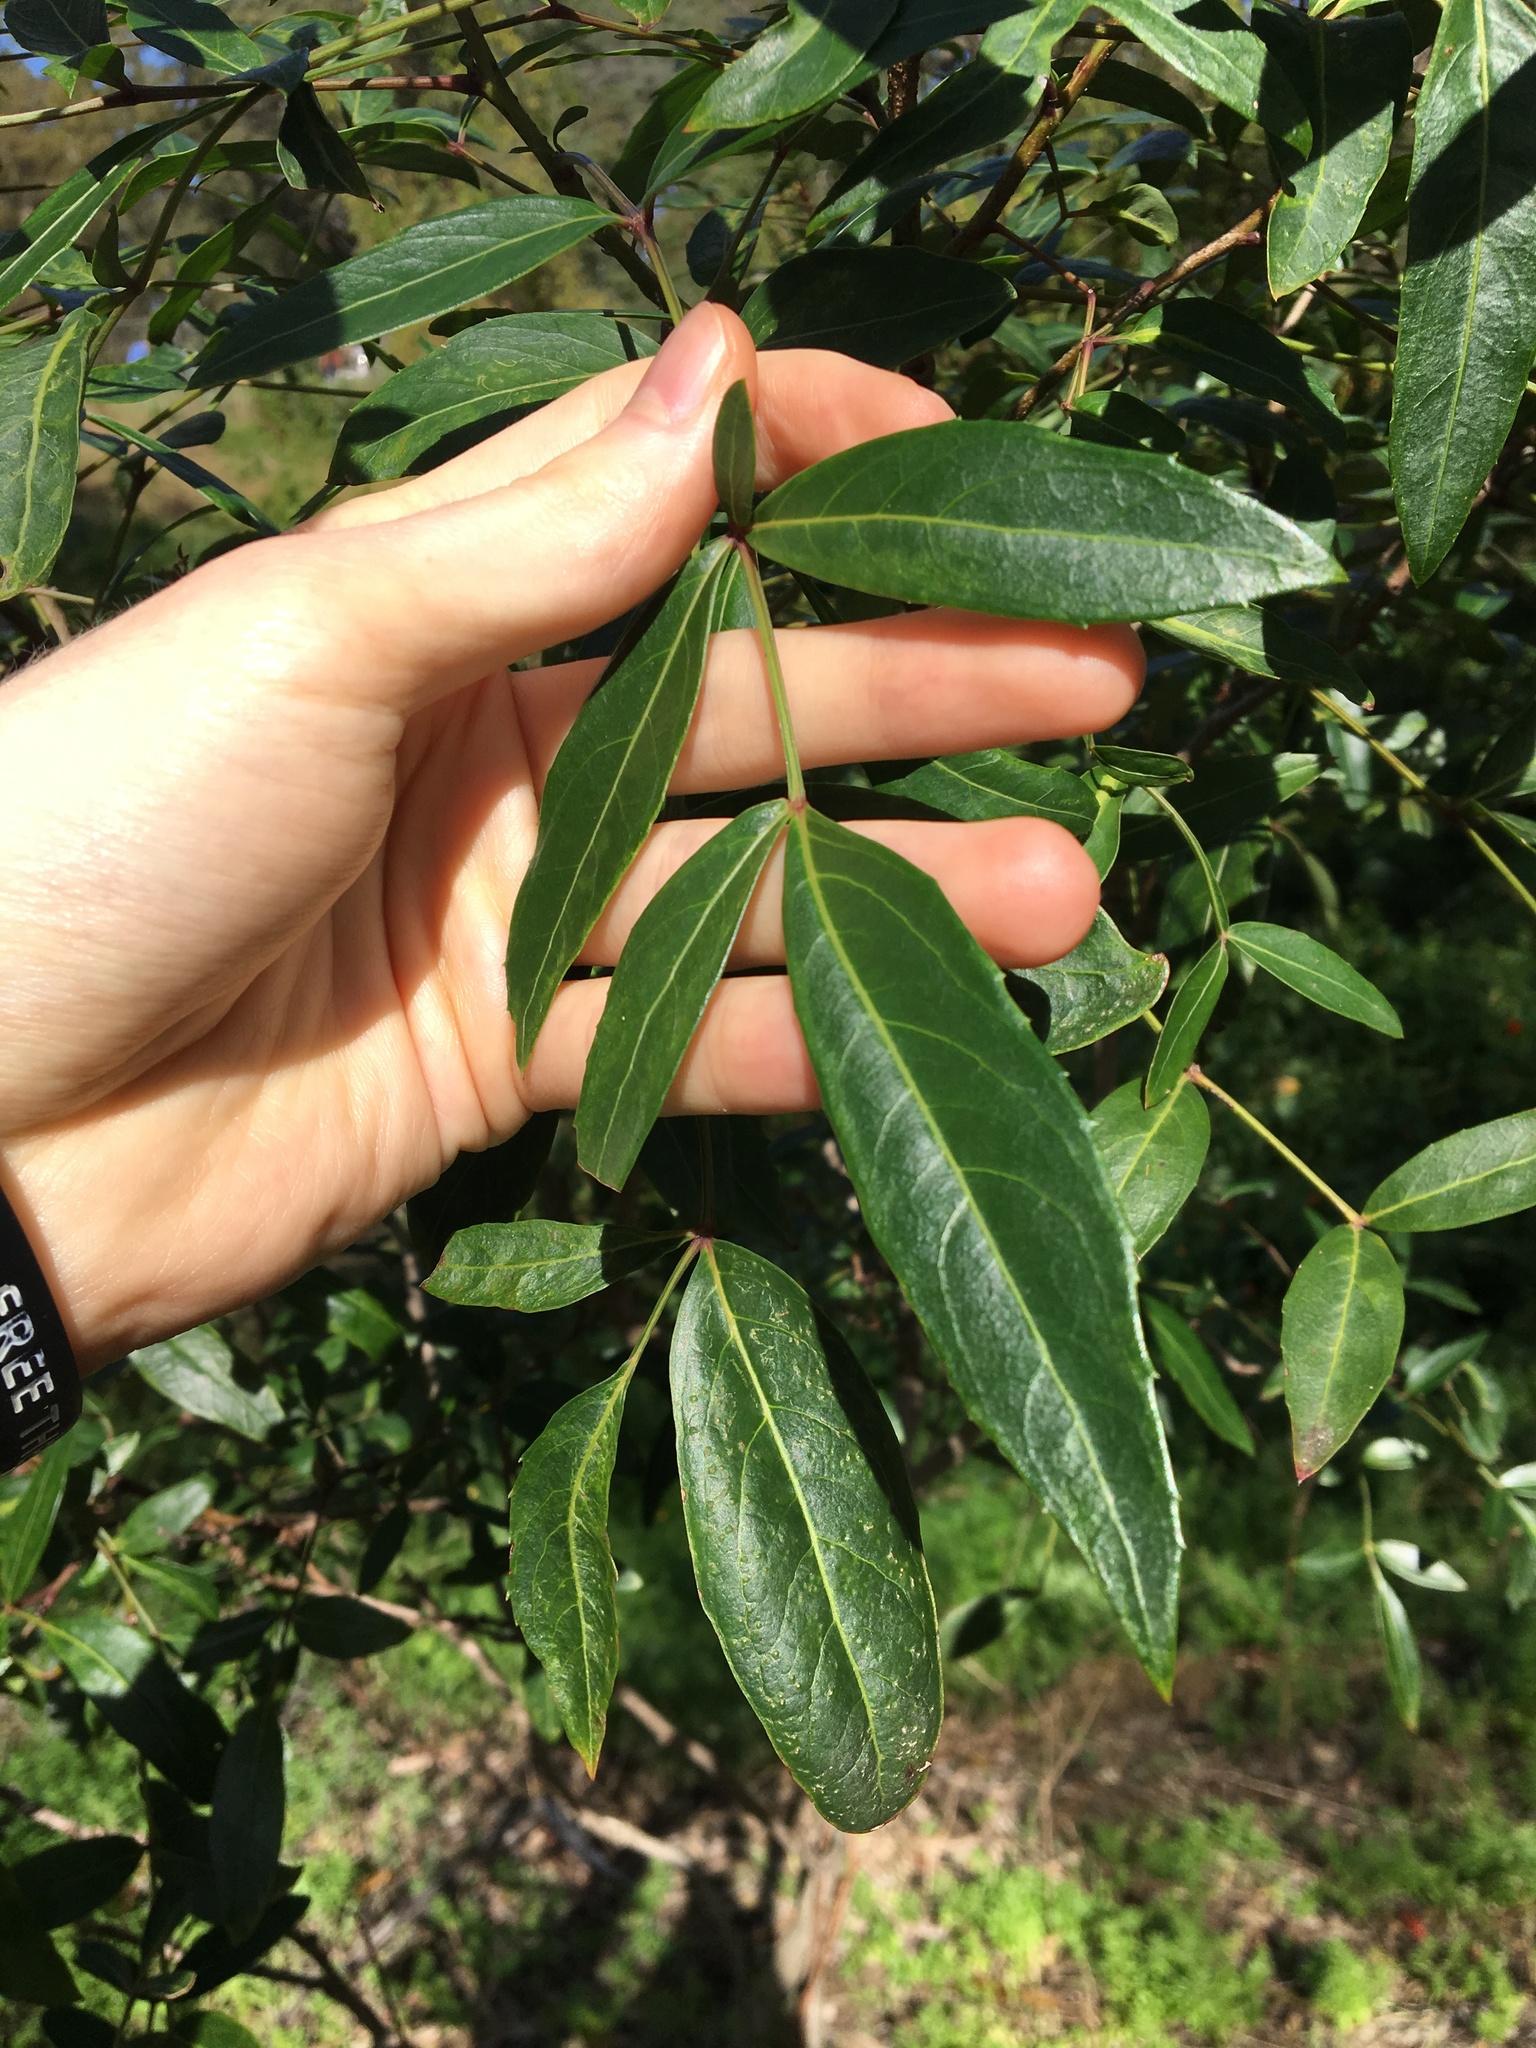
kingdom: Plantae
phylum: Tracheophyta
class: Magnoliopsida
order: Apiales
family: Araliaceae
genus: Polyscias
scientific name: Polyscias sambucifolia
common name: Elderberry-ash
